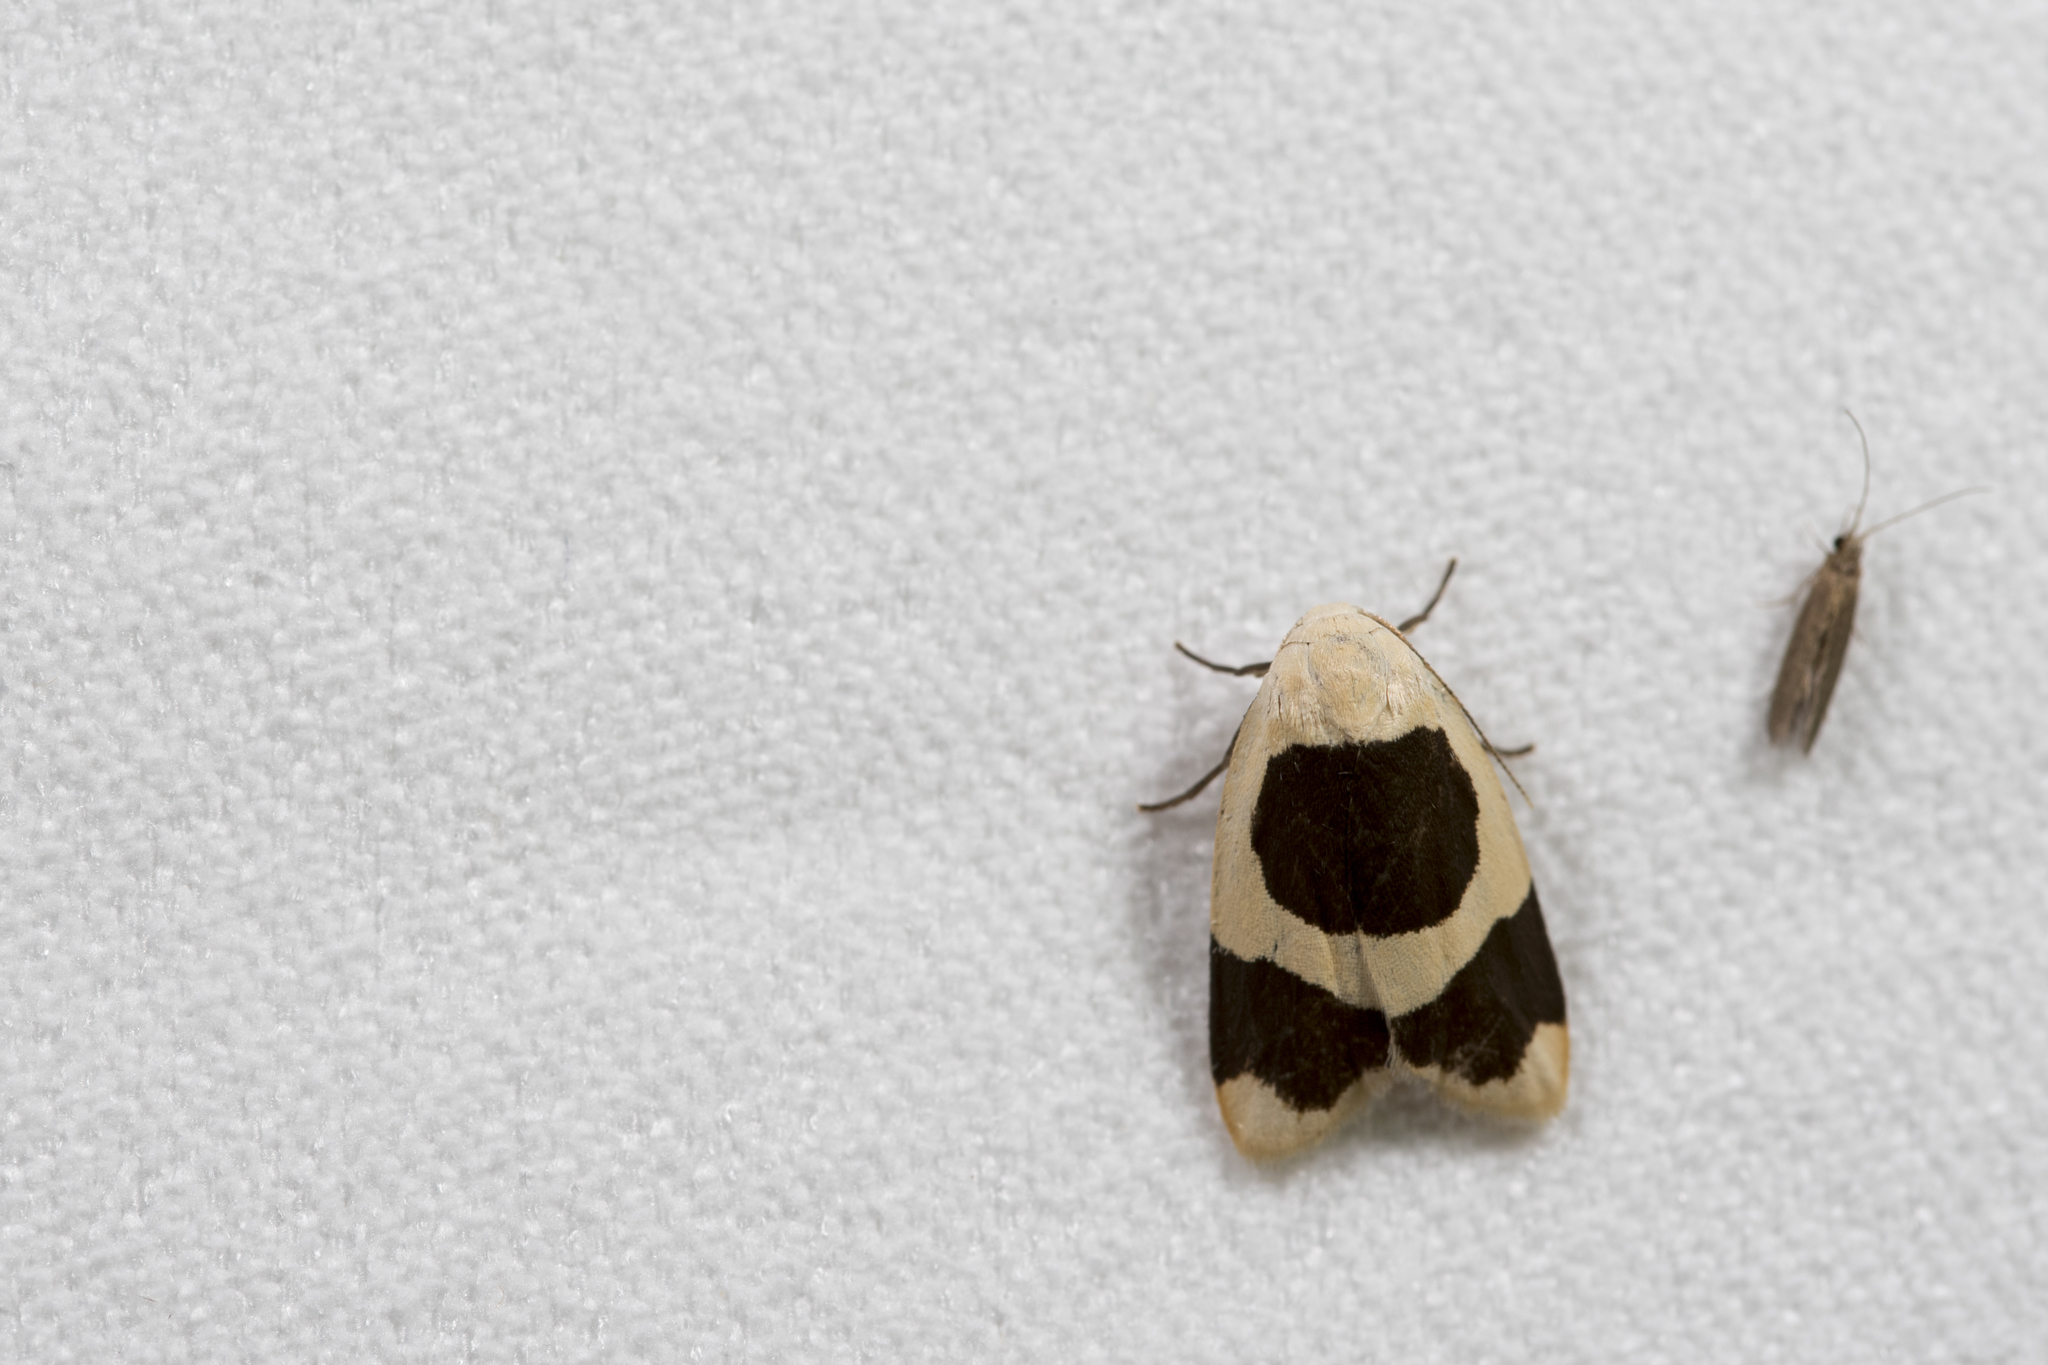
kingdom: Animalia
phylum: Arthropoda
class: Insecta
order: Lepidoptera
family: Erebidae
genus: Garudinia
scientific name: Garudinia taioana
